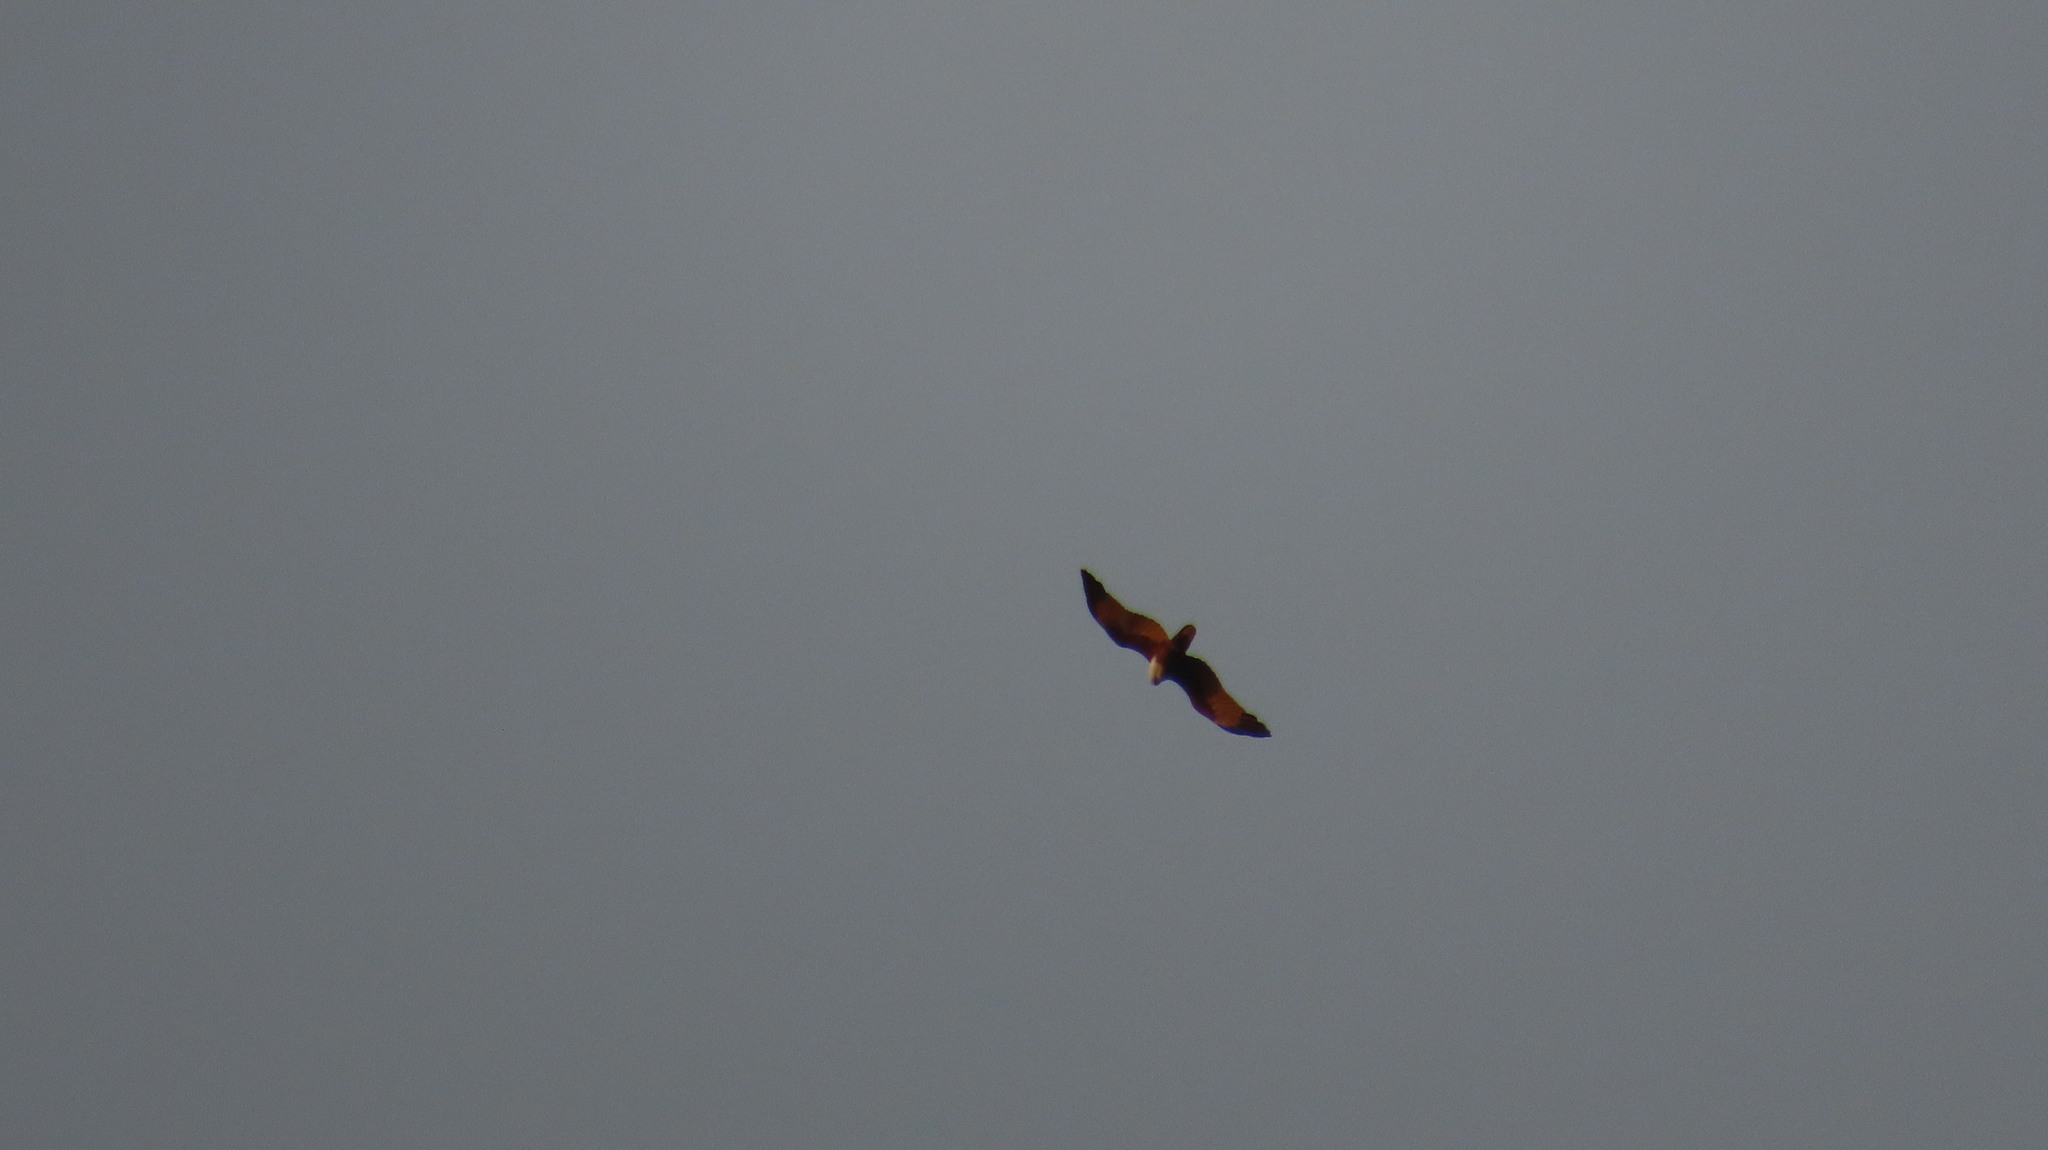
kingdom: Animalia
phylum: Chordata
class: Aves
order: Accipitriformes
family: Accipitridae
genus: Haliastur
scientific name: Haliastur indus
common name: Brahminy kite
